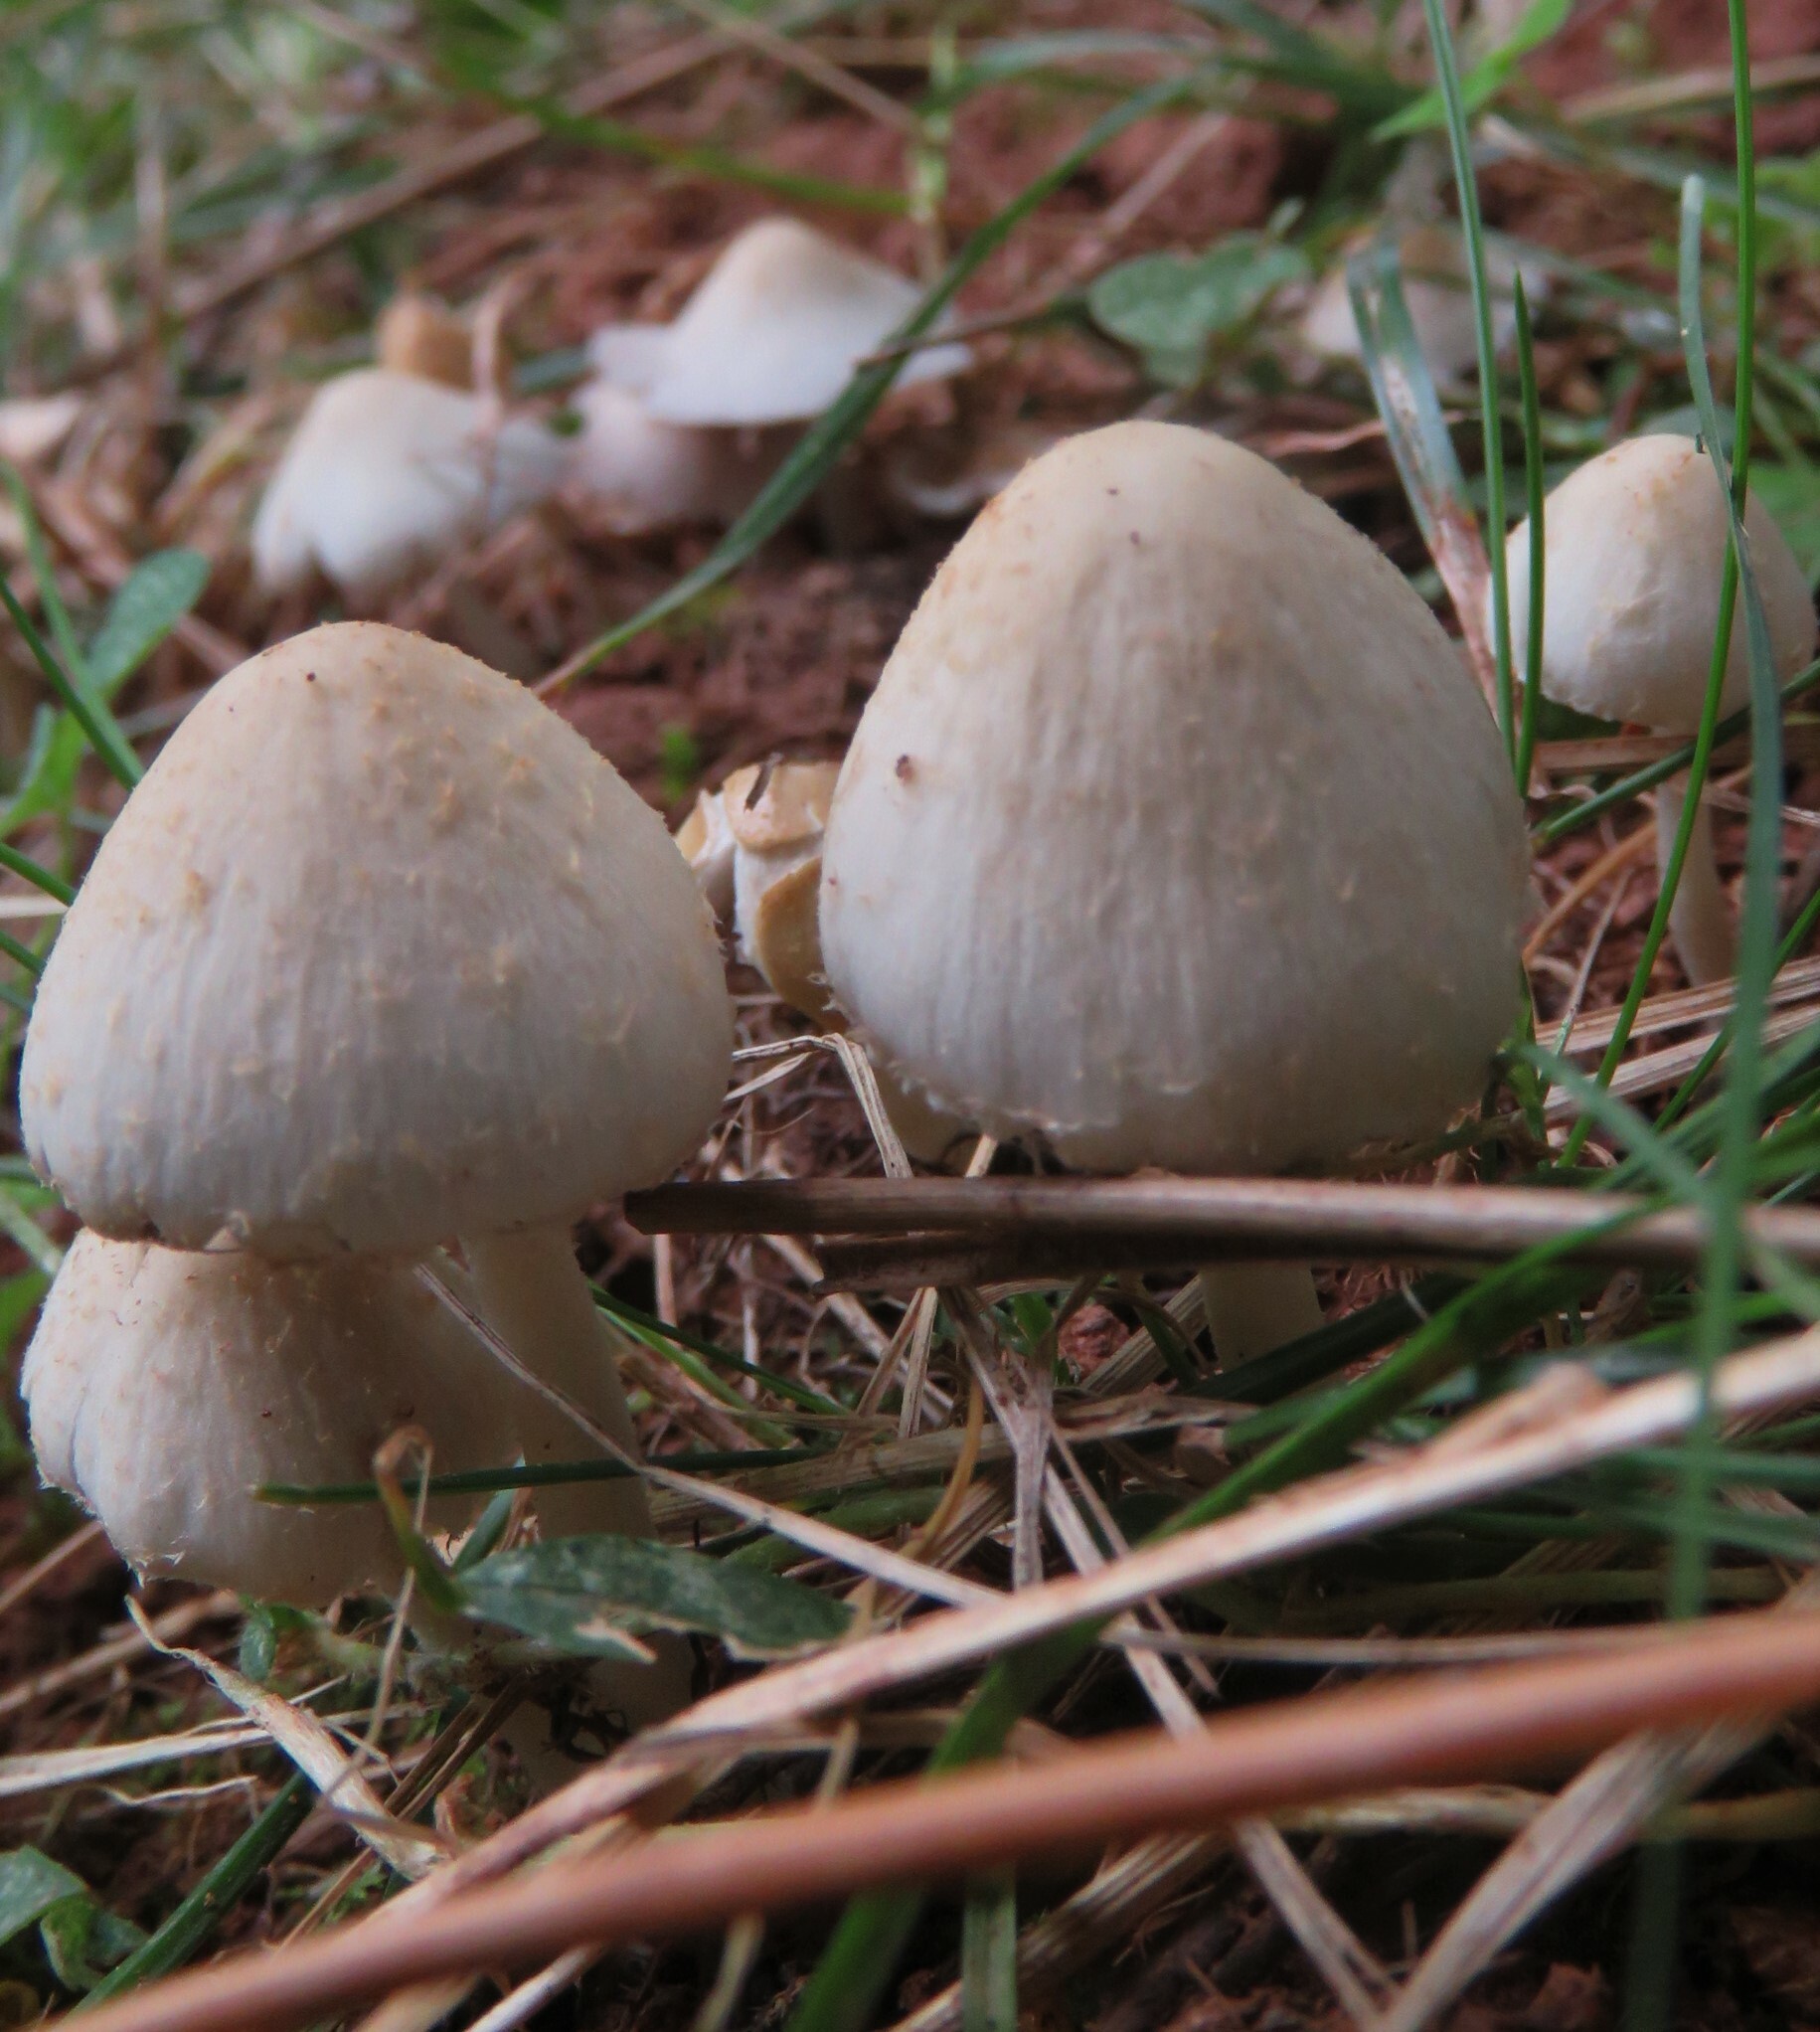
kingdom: Fungi
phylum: Basidiomycota
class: Agaricomycetes
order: Agaricales
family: Psathyrellaceae
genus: Candolleomyces
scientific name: Candolleomyces candolleanus
